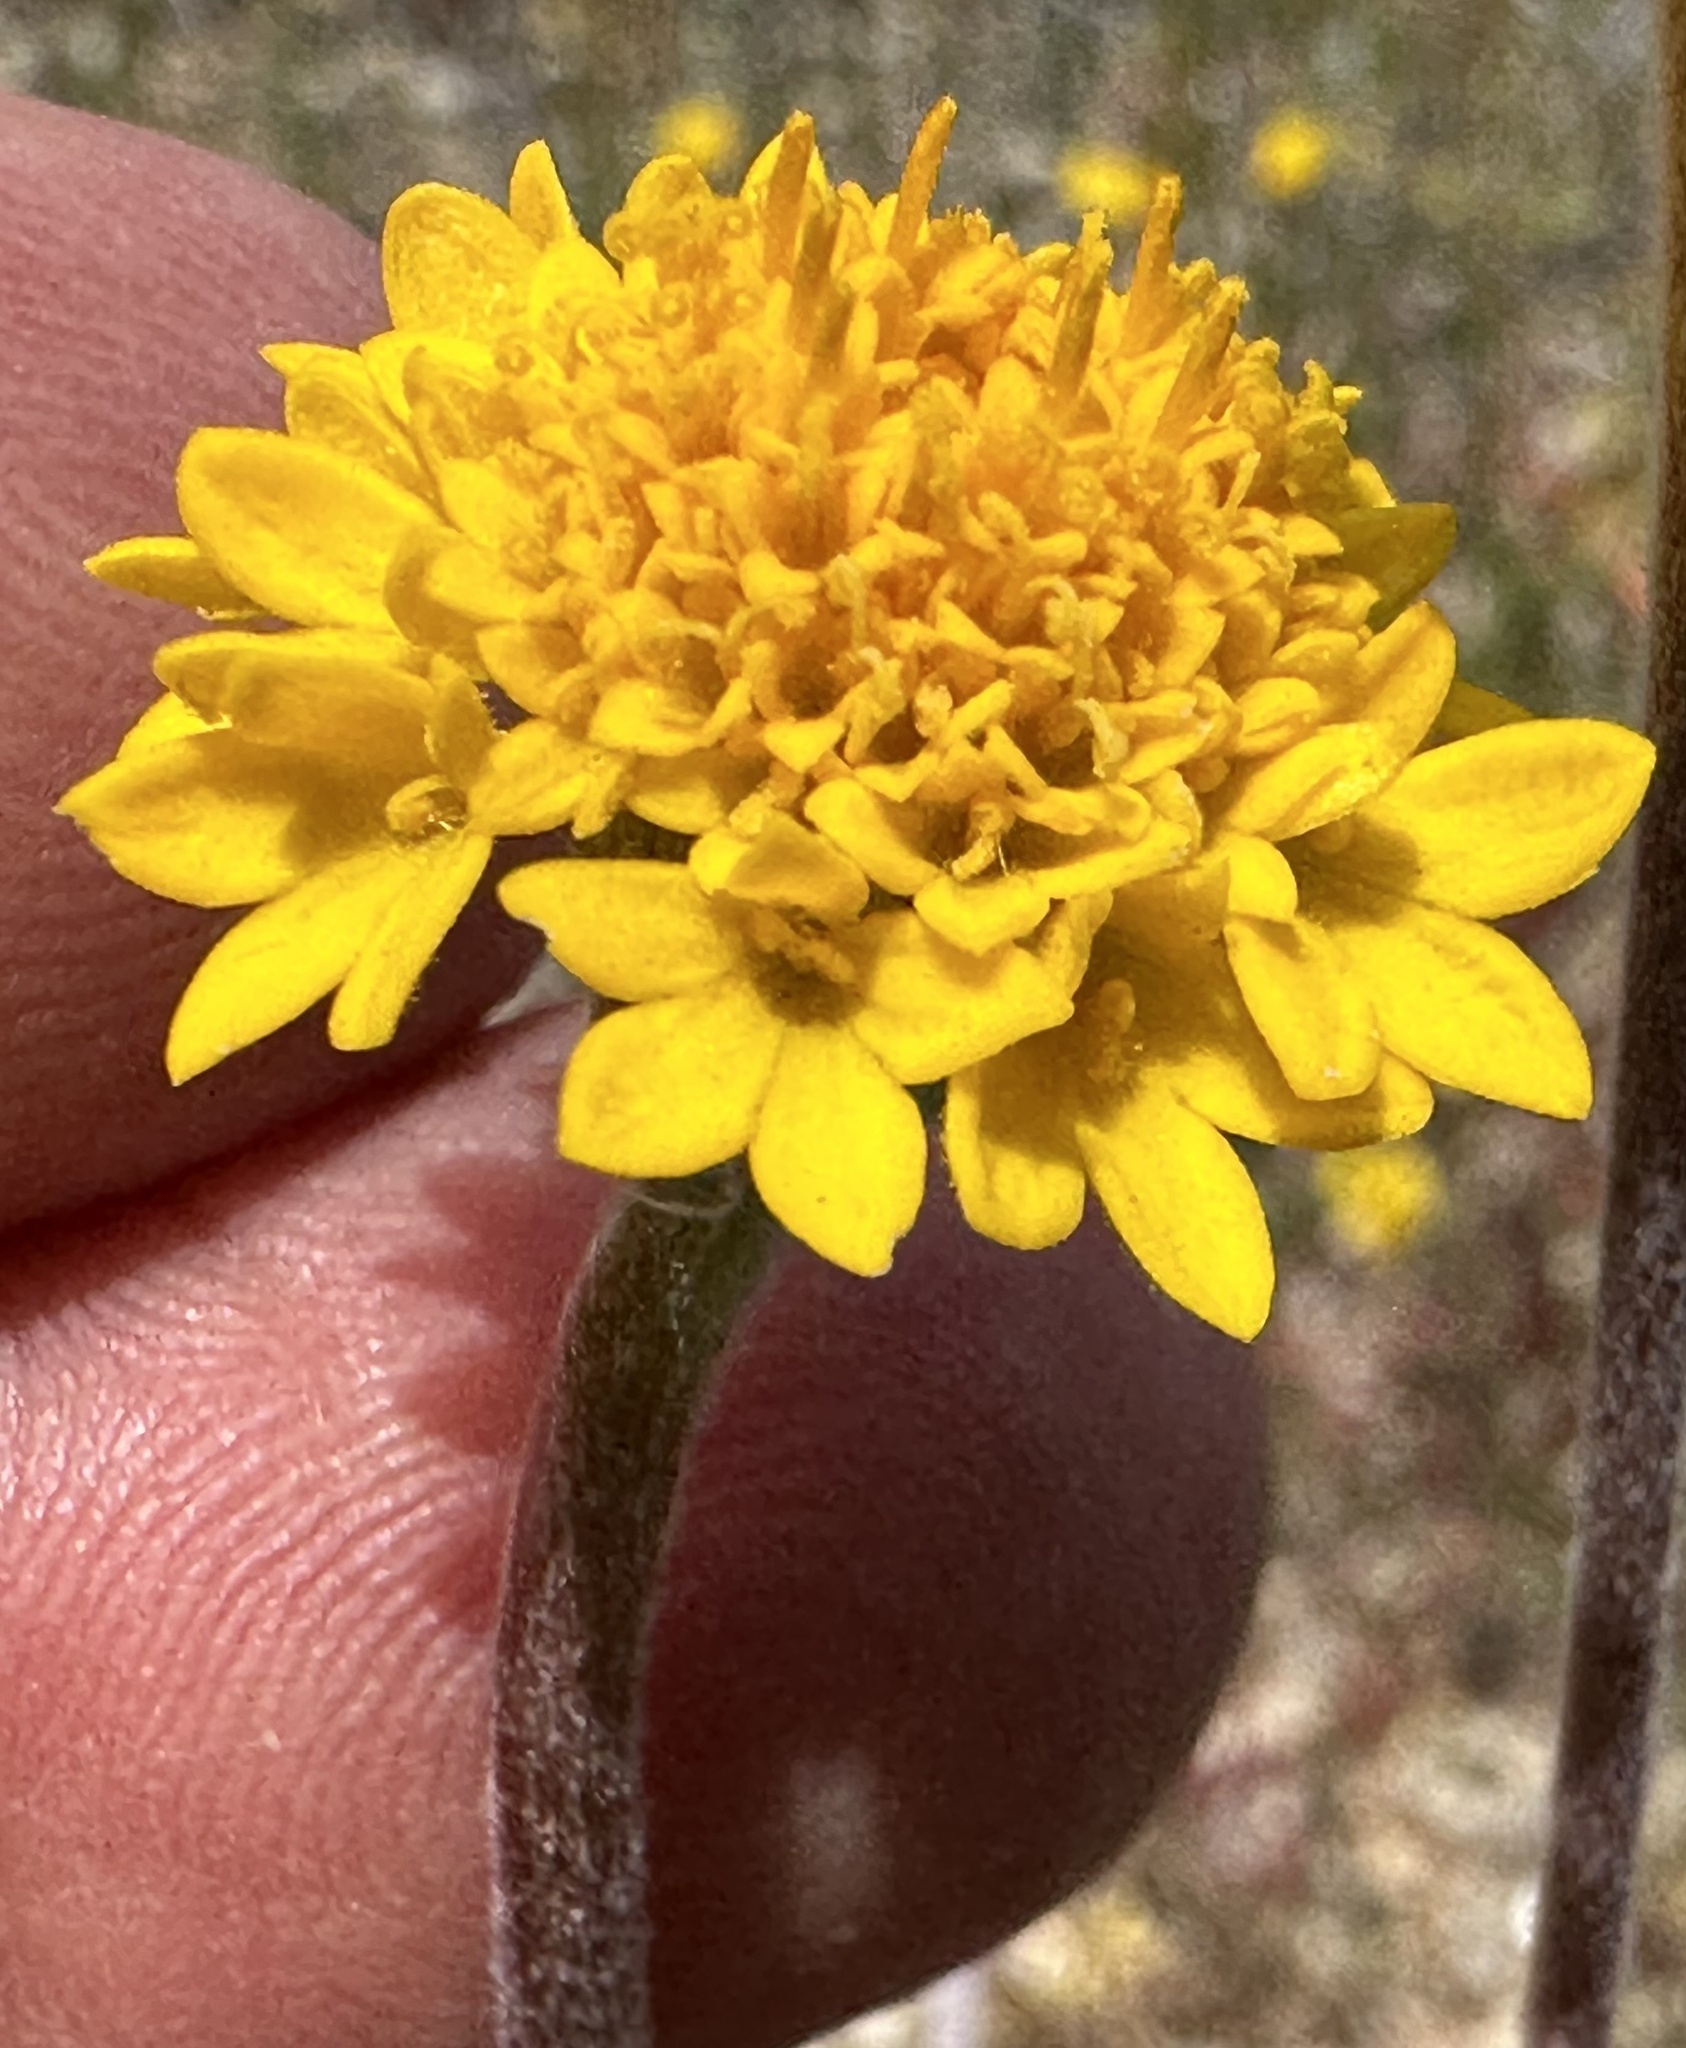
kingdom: Plantae
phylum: Tracheophyta
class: Magnoliopsida
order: Asterales
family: Asteraceae
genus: Chaenactis
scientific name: Chaenactis glabriuscula
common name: Yellow pincushion
